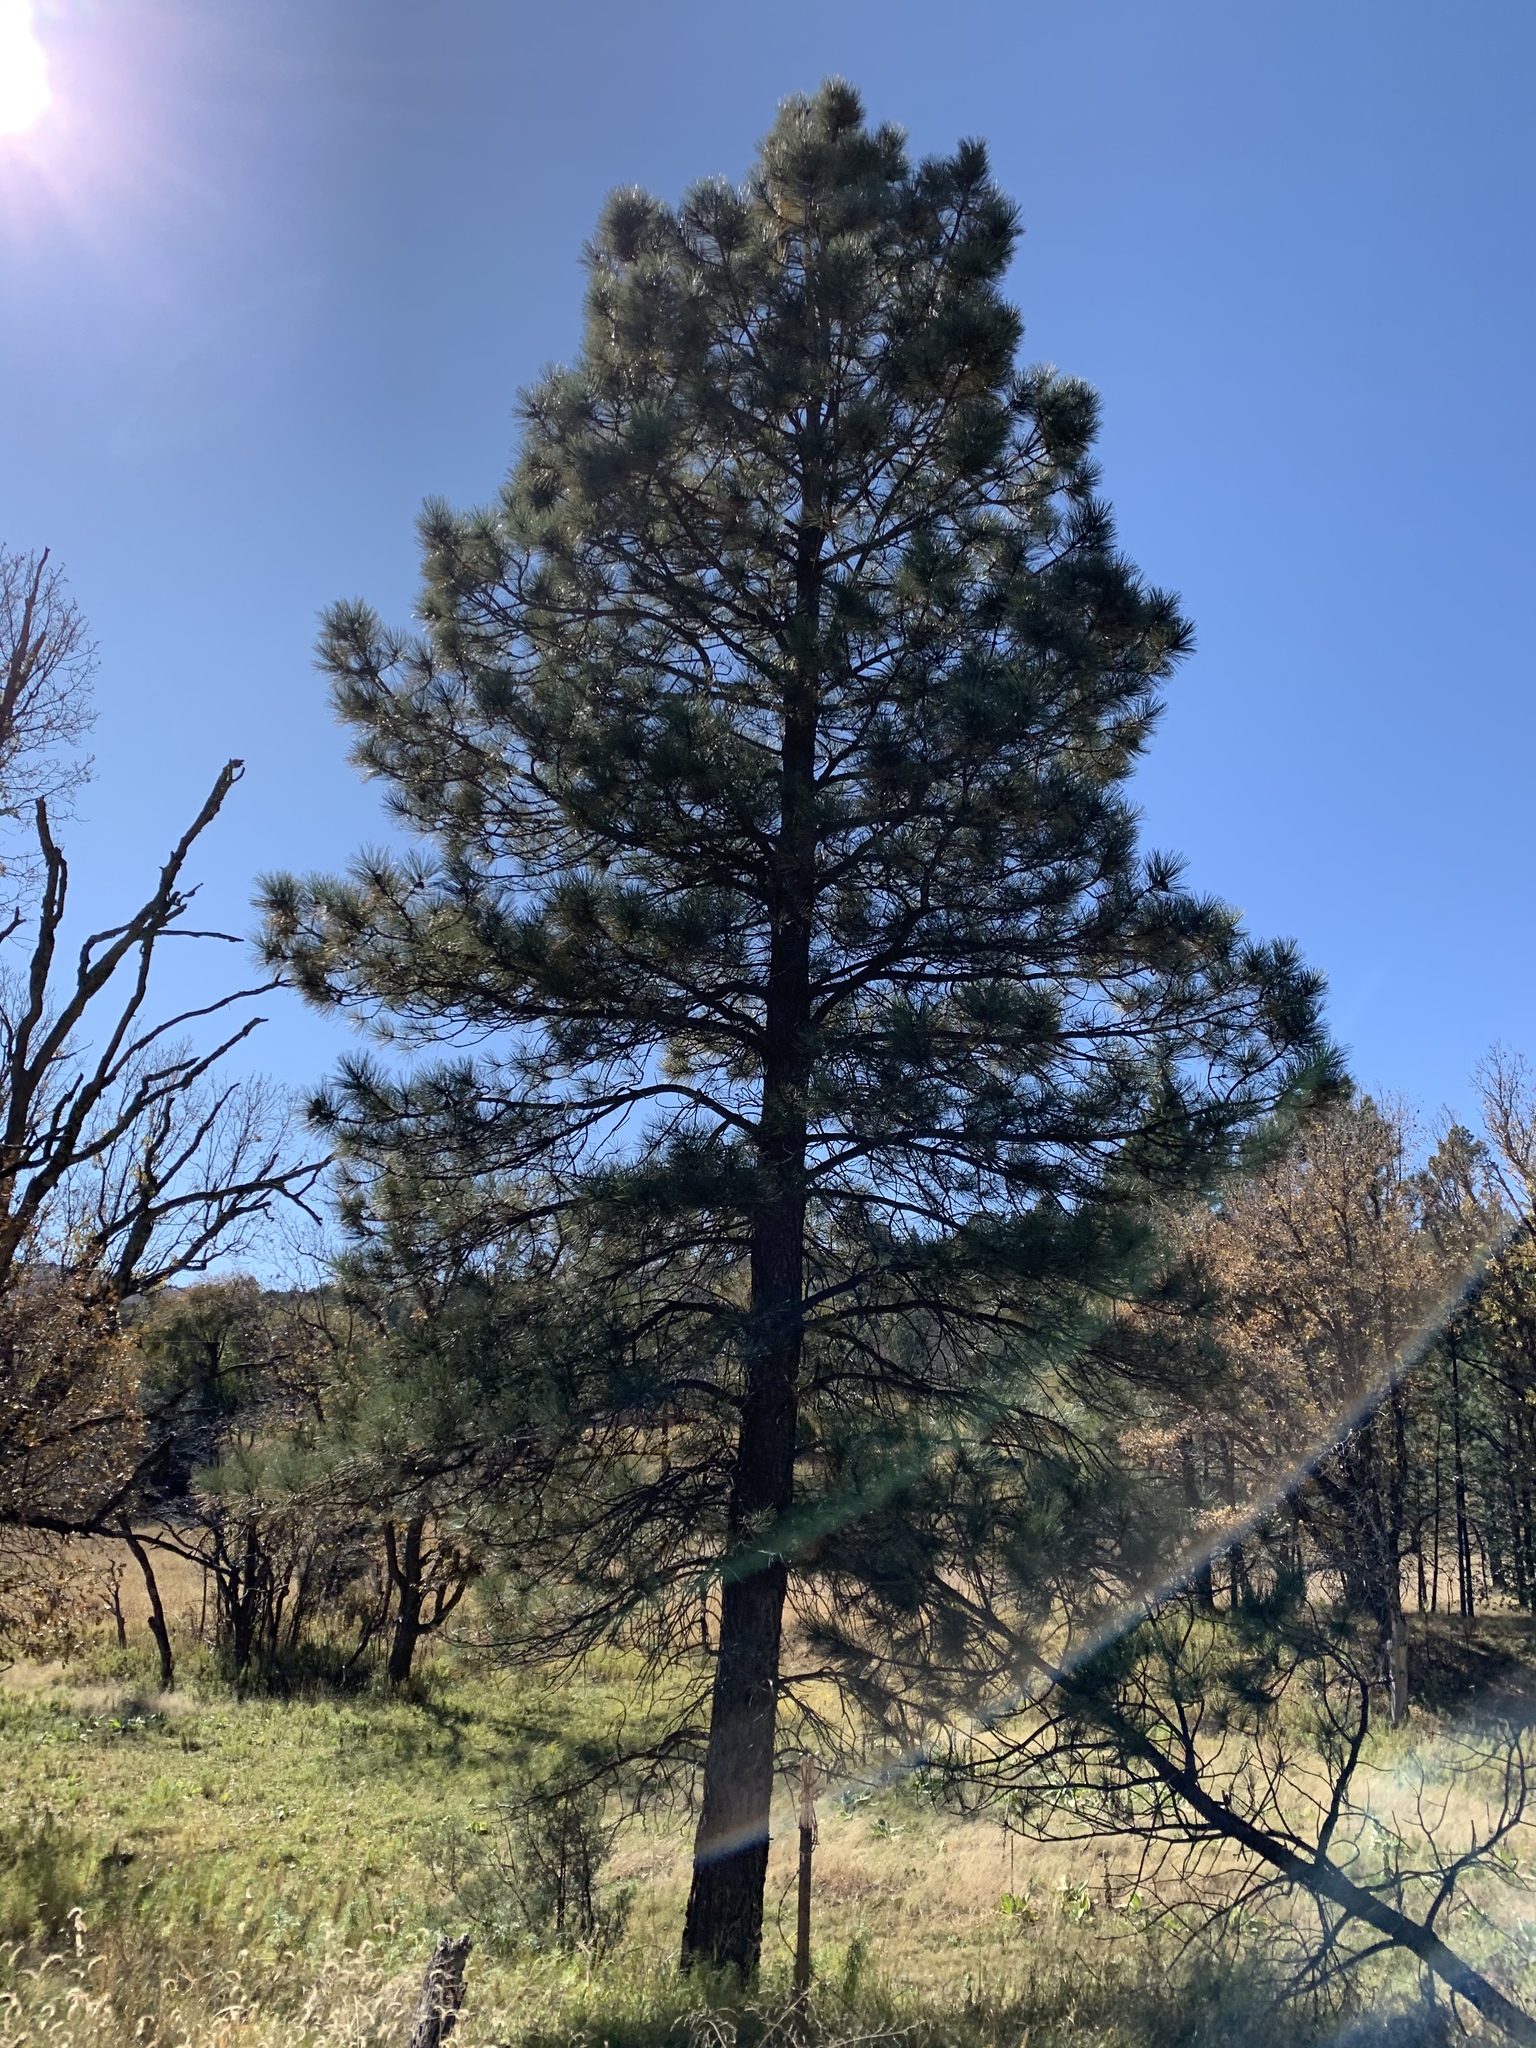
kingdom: Plantae
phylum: Tracheophyta
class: Pinopsida
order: Pinales
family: Pinaceae
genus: Pinus
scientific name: Pinus ponderosa
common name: Western yellow-pine
